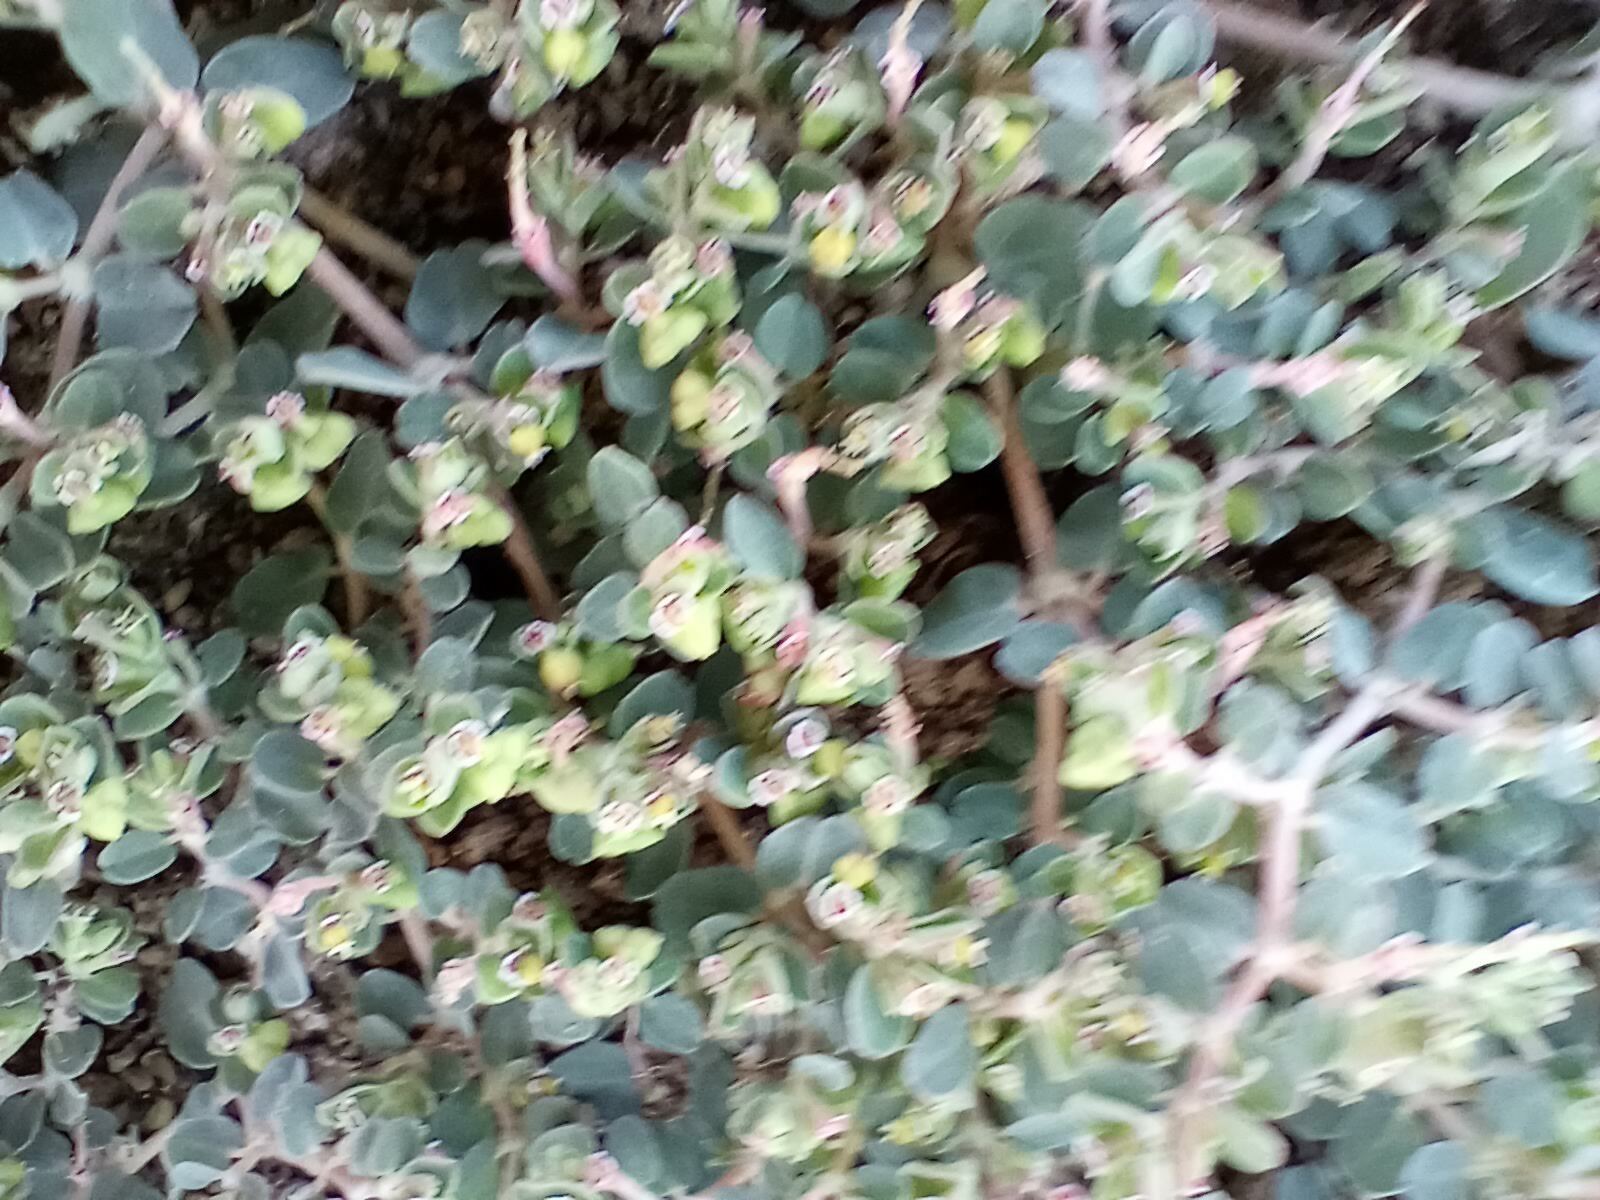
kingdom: Plantae
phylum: Tracheophyta
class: Magnoliopsida
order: Malpighiales
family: Euphorbiaceae
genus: Euphorbia
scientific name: Euphorbia serpens
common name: Matted sandmat
